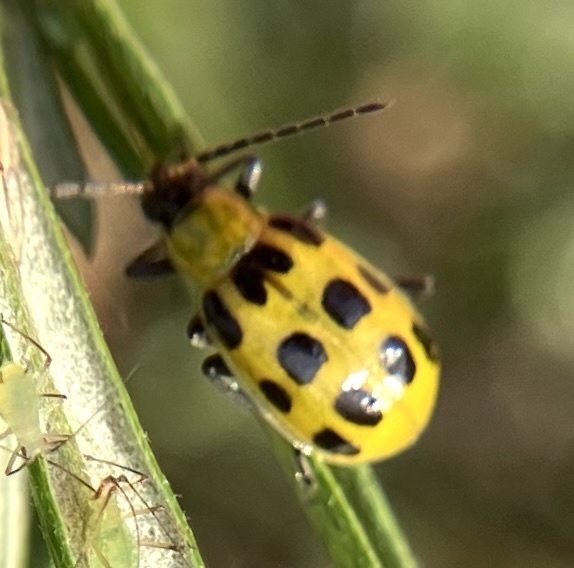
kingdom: Animalia
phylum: Arthropoda
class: Insecta
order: Coleoptera
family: Chrysomelidae
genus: Diabrotica
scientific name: Diabrotica undecimpunctata
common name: Spotted cucumber beetle
